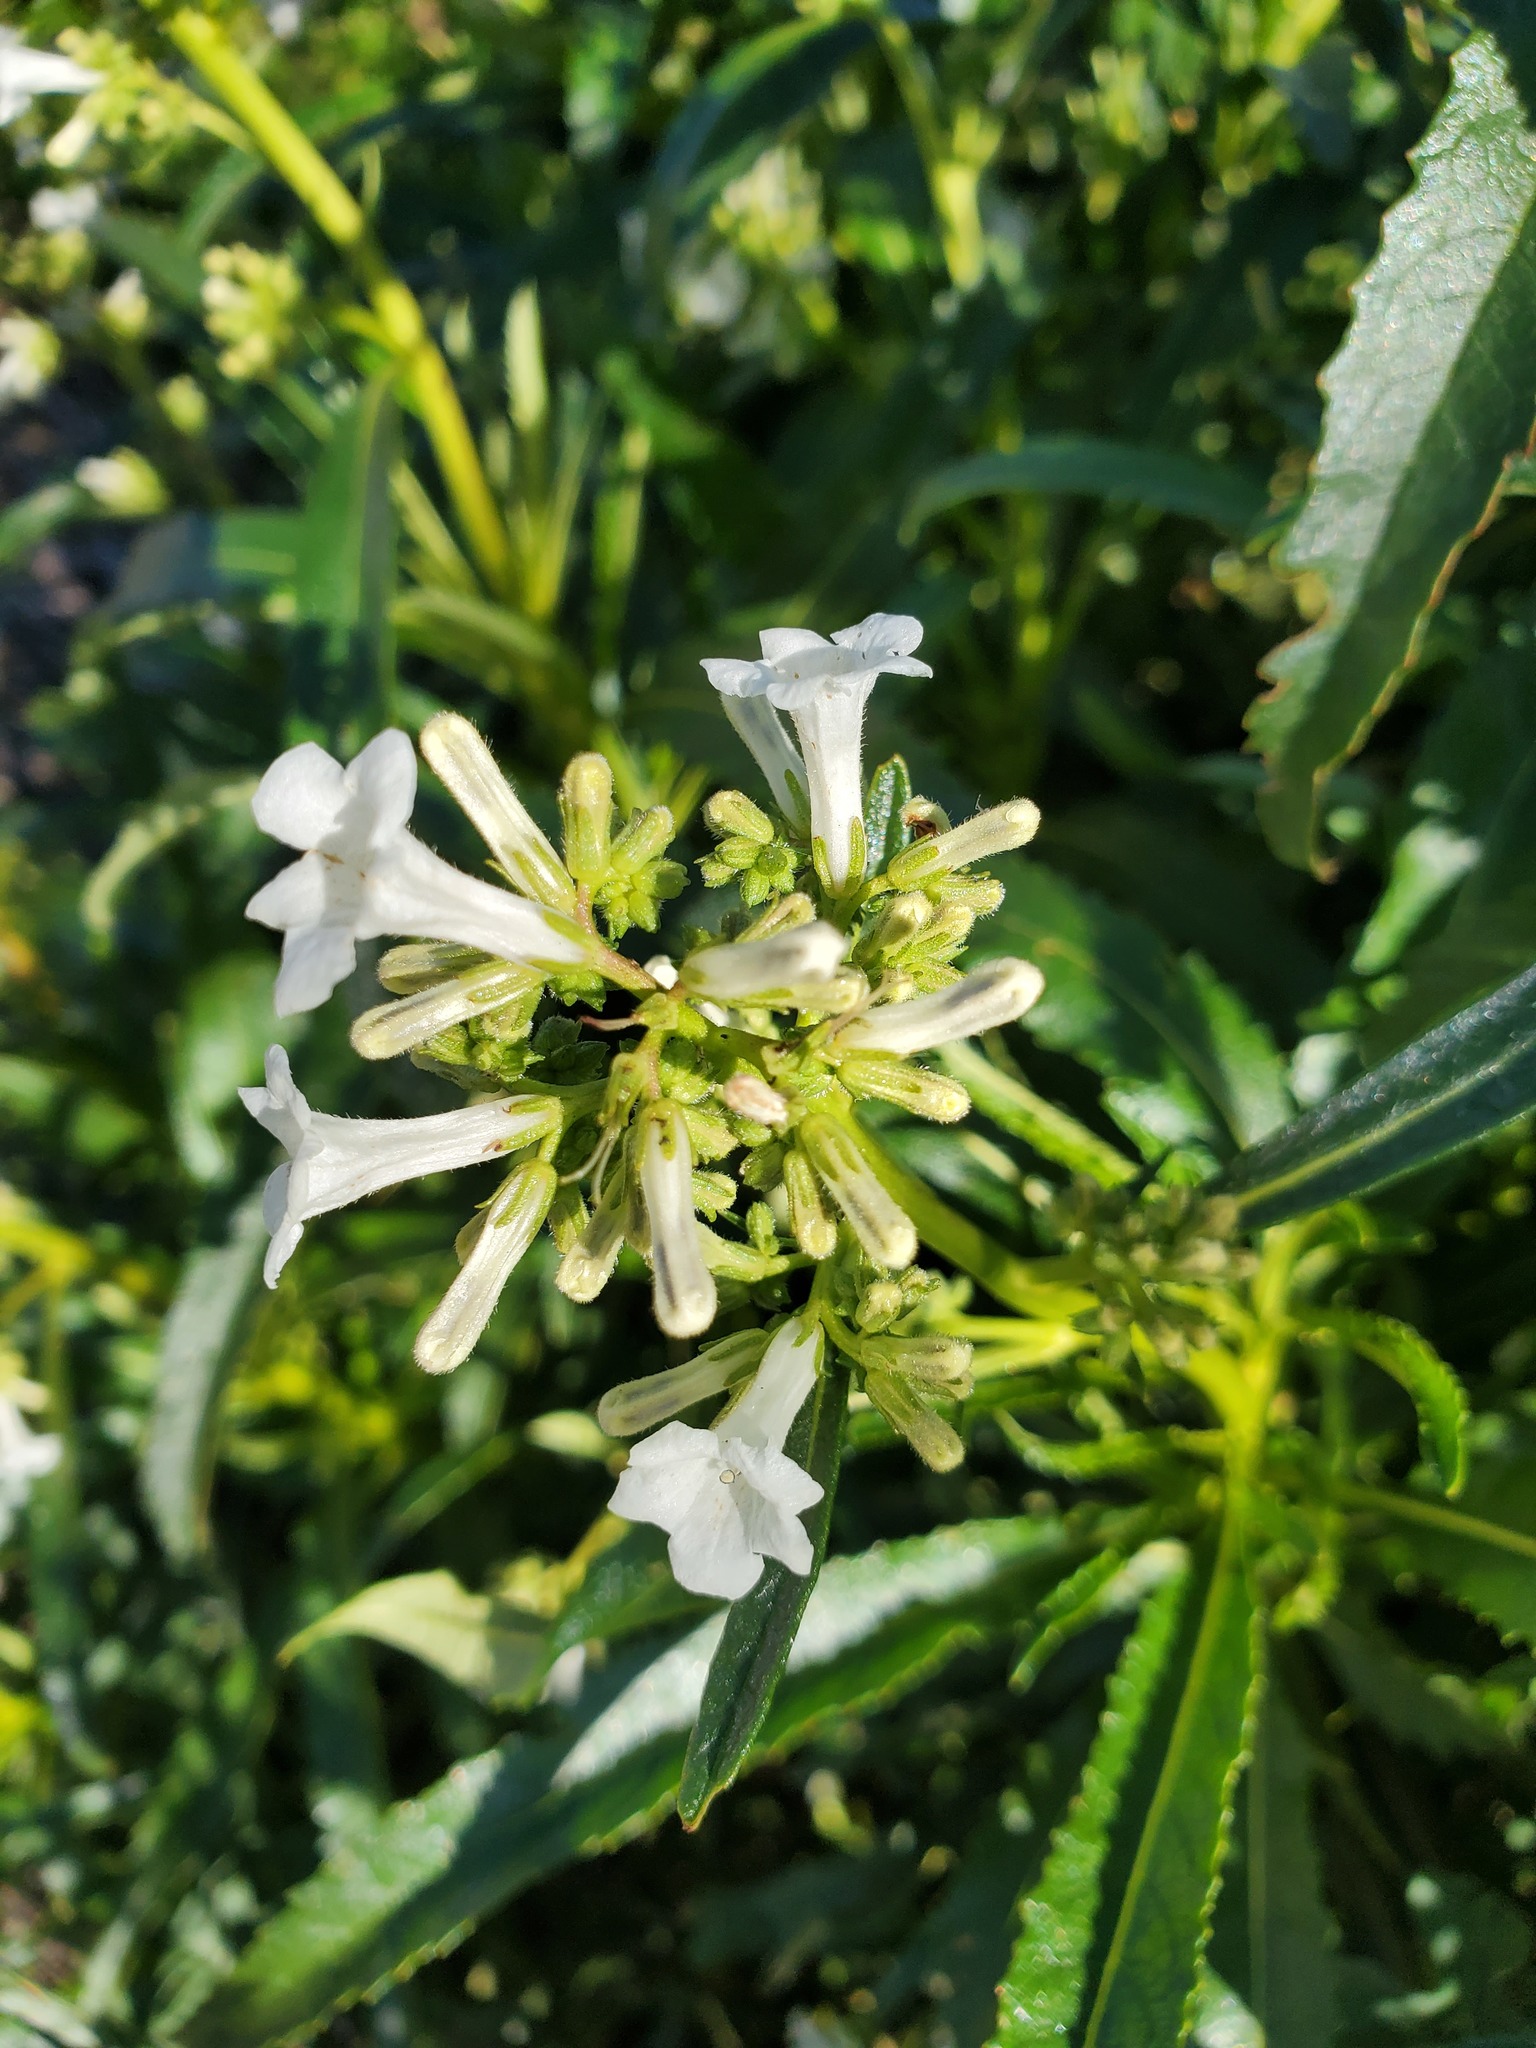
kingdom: Plantae
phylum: Tracheophyta
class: Magnoliopsida
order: Boraginales
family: Namaceae
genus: Eriodictyon
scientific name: Eriodictyon californicum
